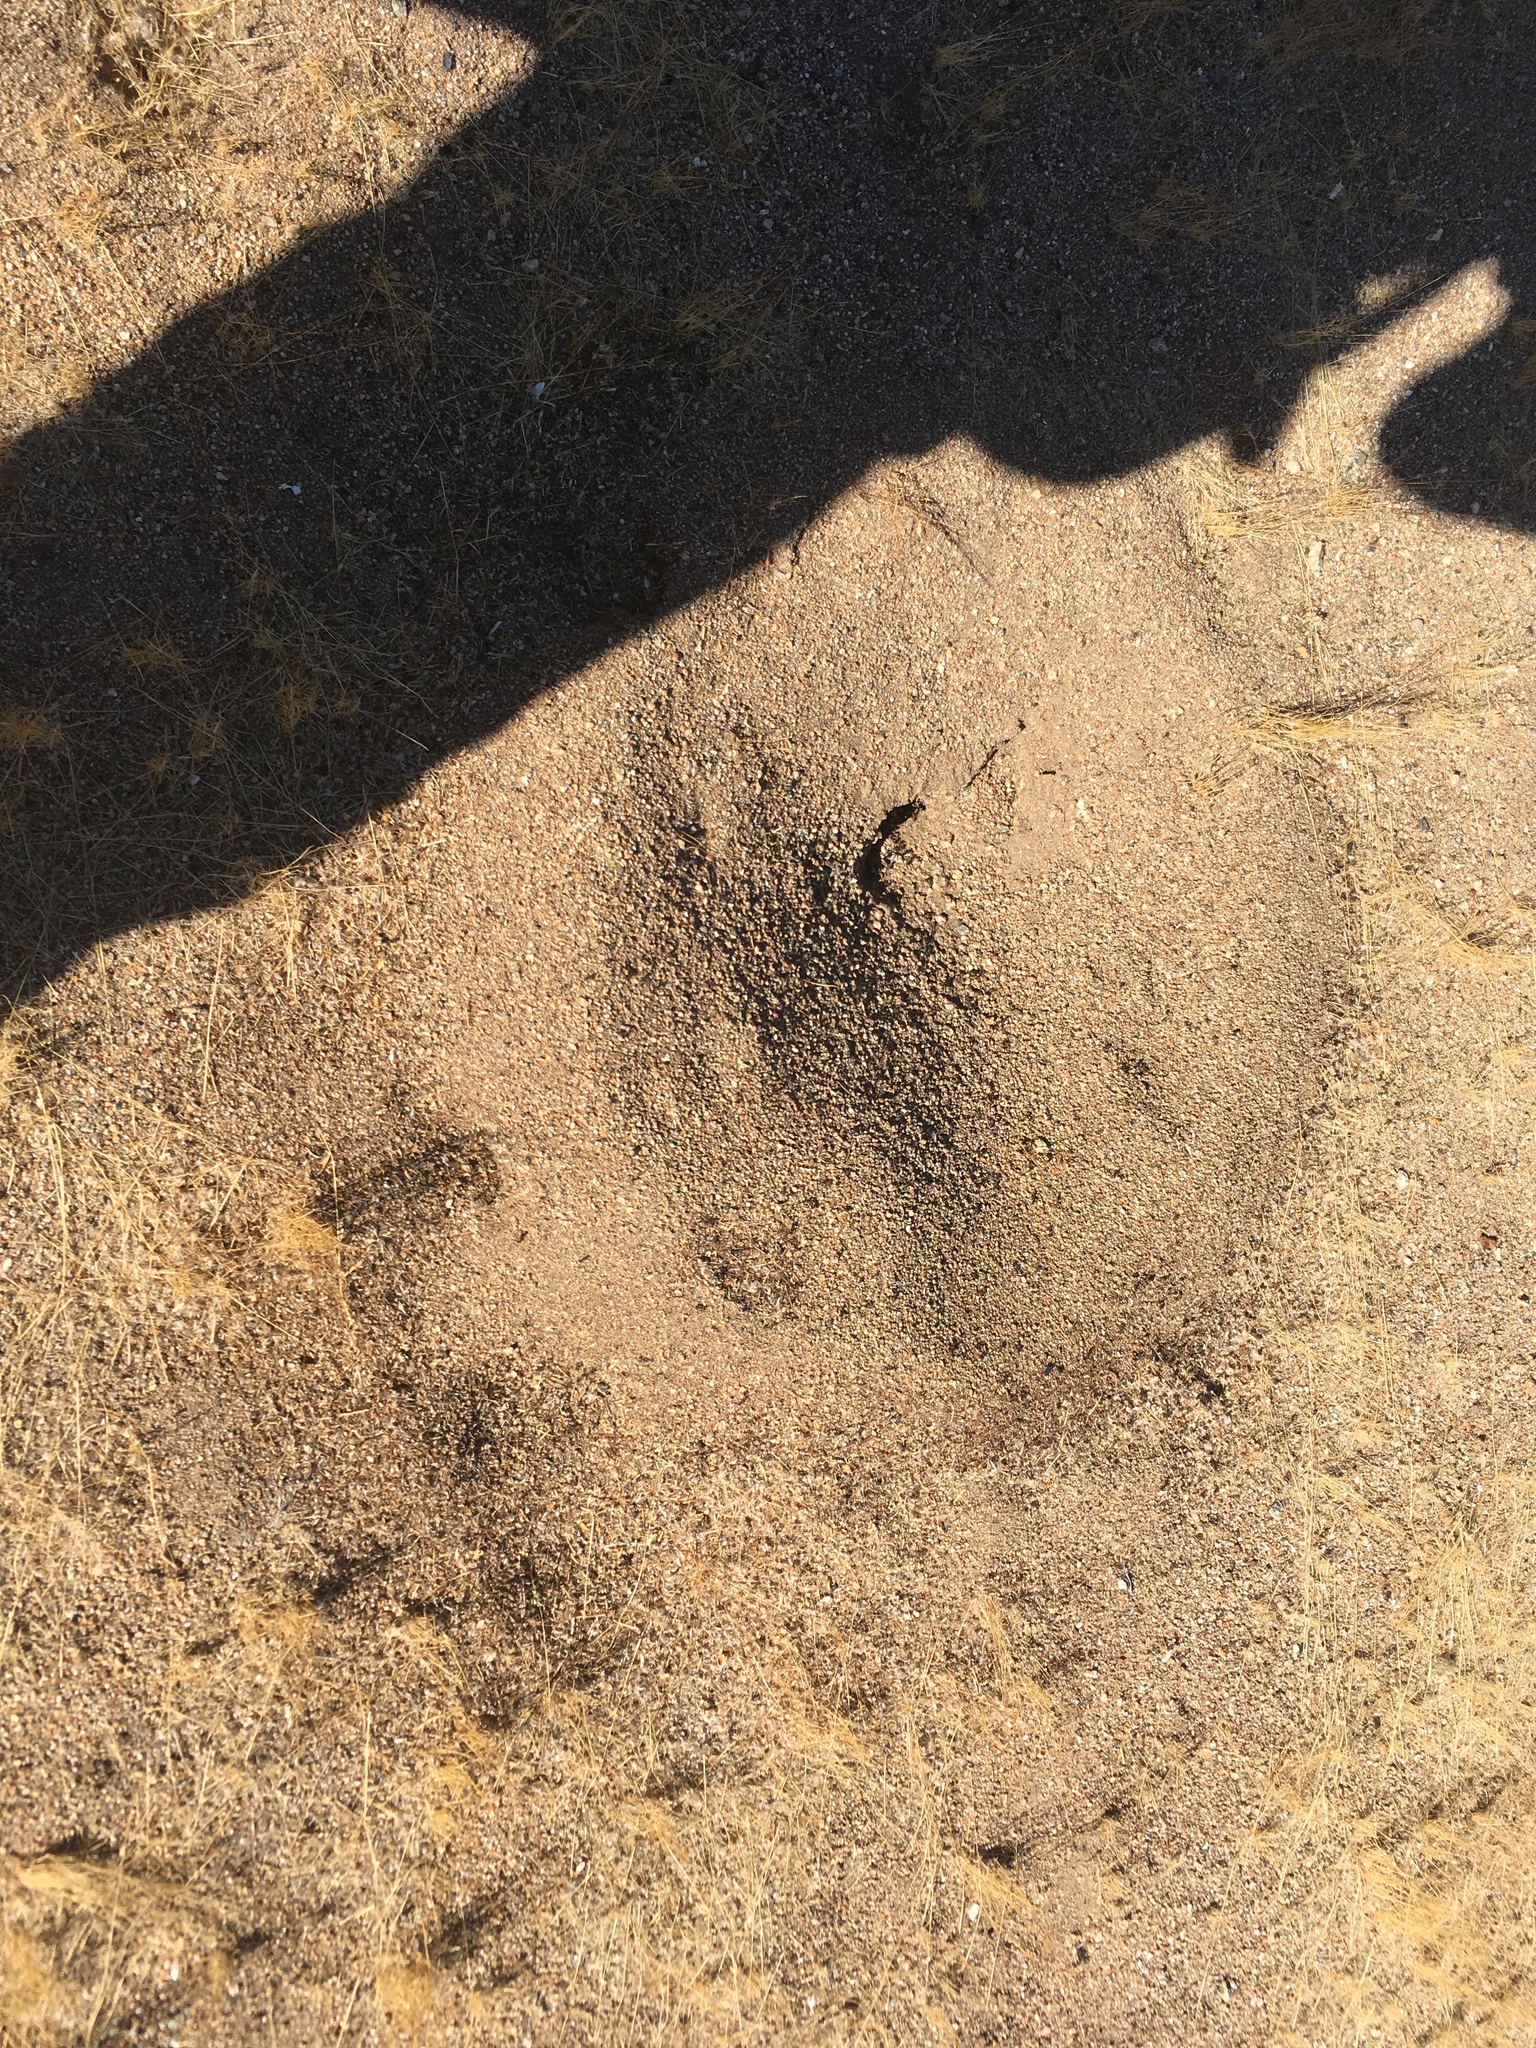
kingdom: Animalia
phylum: Arthropoda
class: Insecta
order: Hymenoptera
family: Formicidae
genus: Messor
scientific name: Messor pergandei
